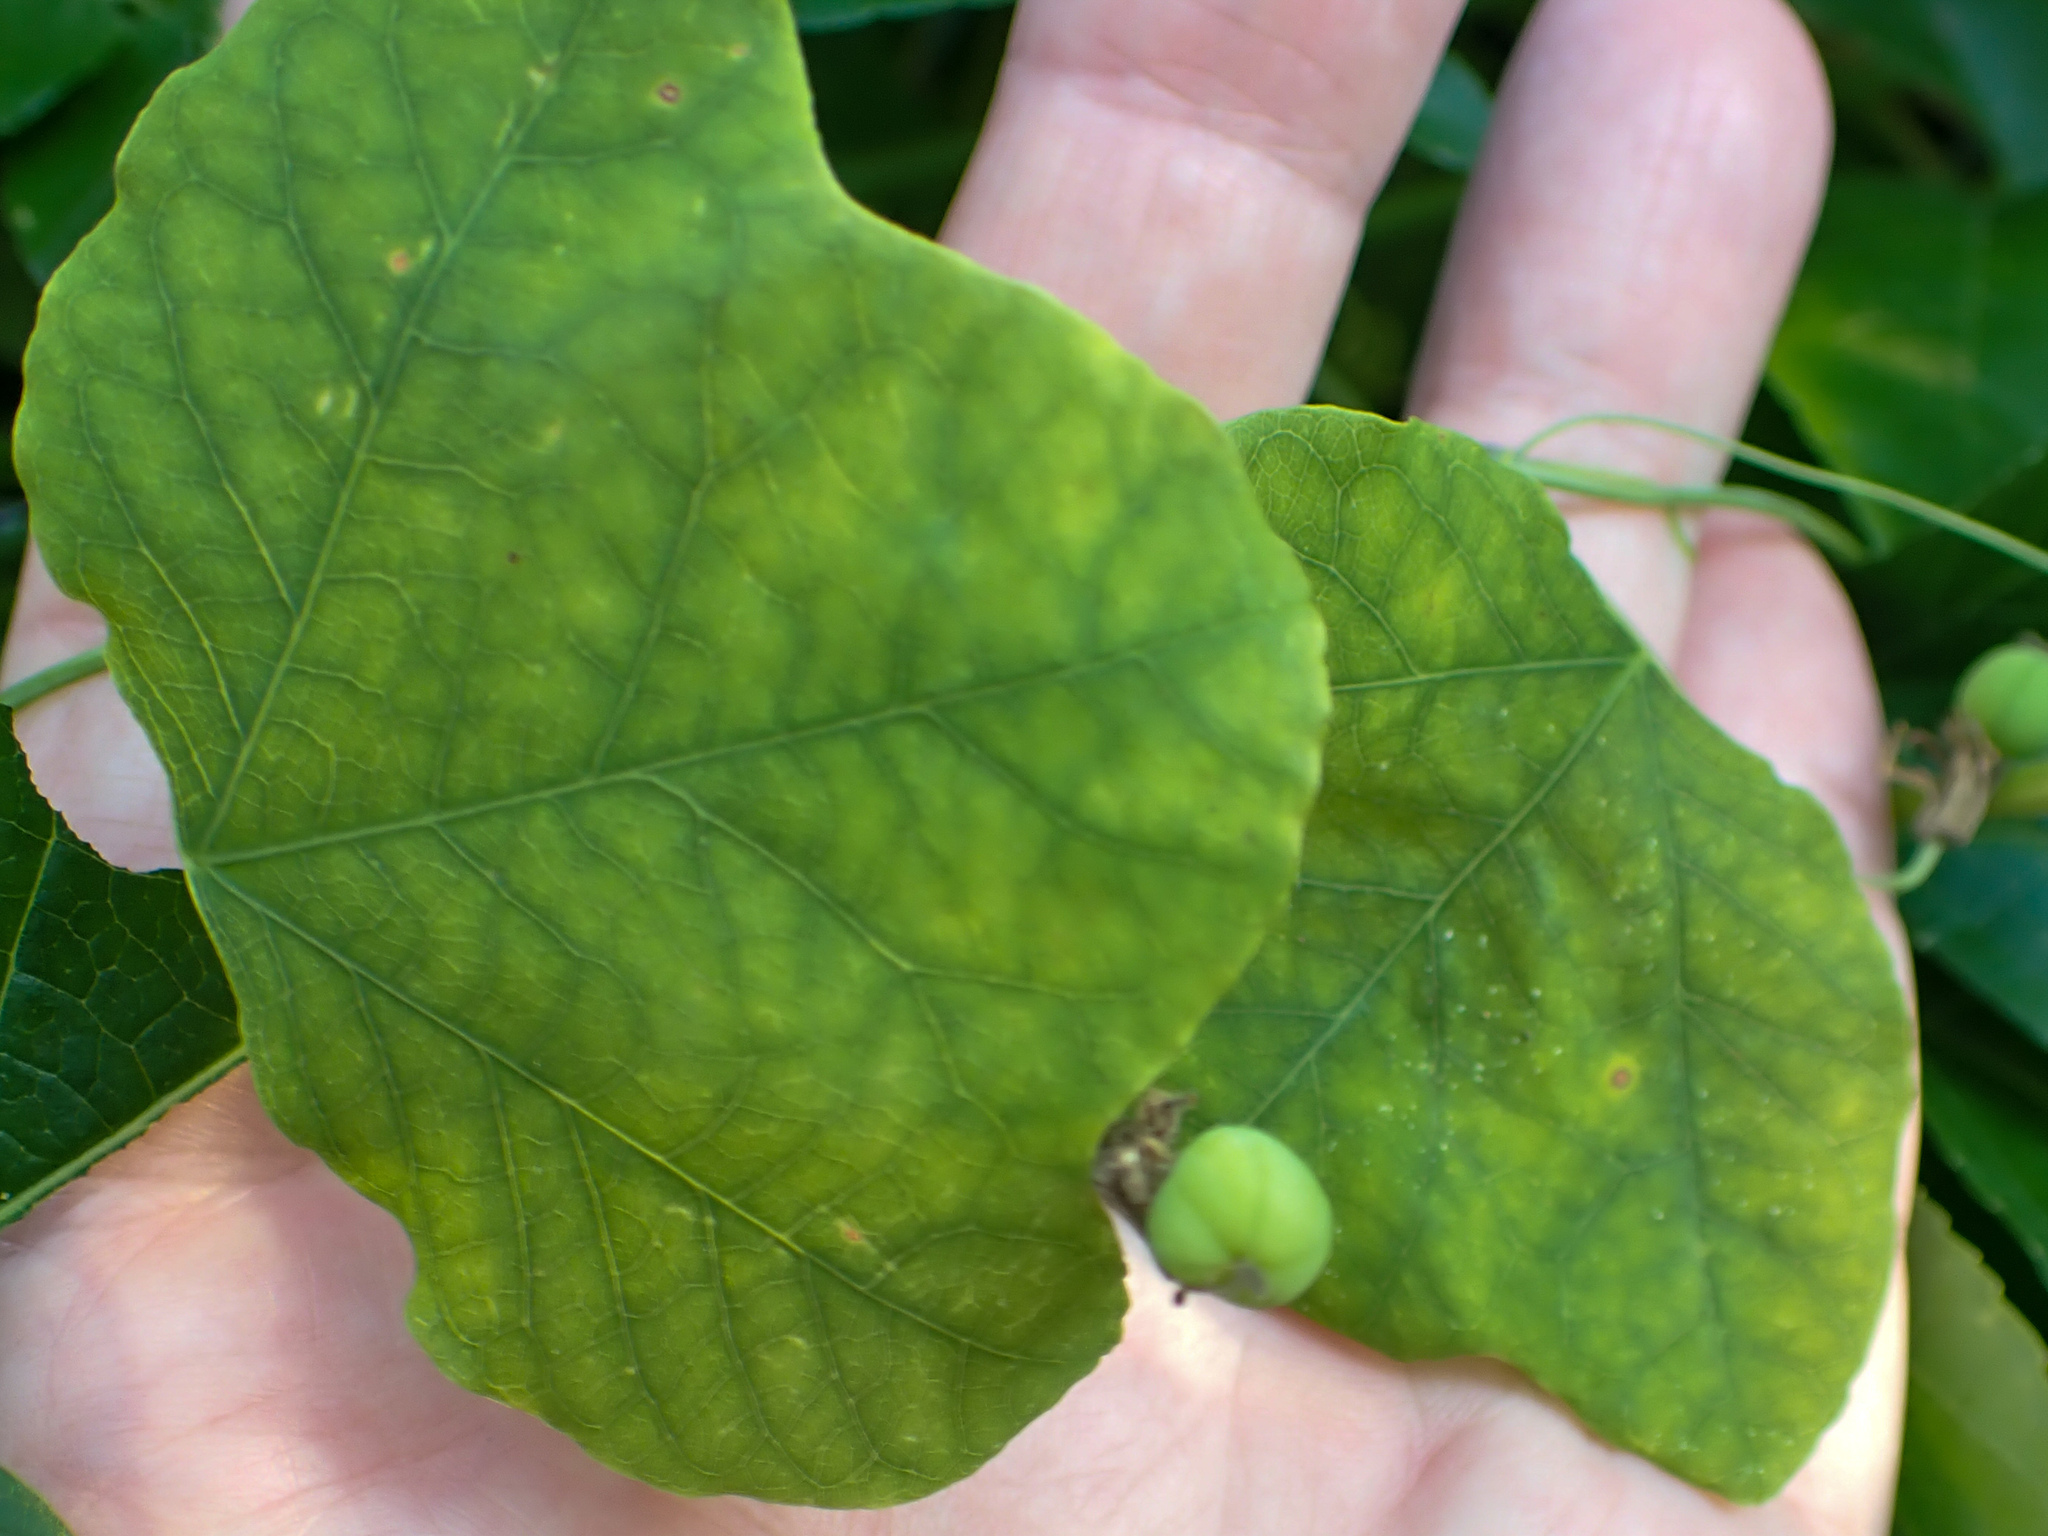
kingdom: Plantae
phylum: Tracheophyta
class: Magnoliopsida
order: Malpighiales
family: Passifloraceae
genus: Passiflora
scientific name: Passiflora lutea
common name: Yellow passionflower
